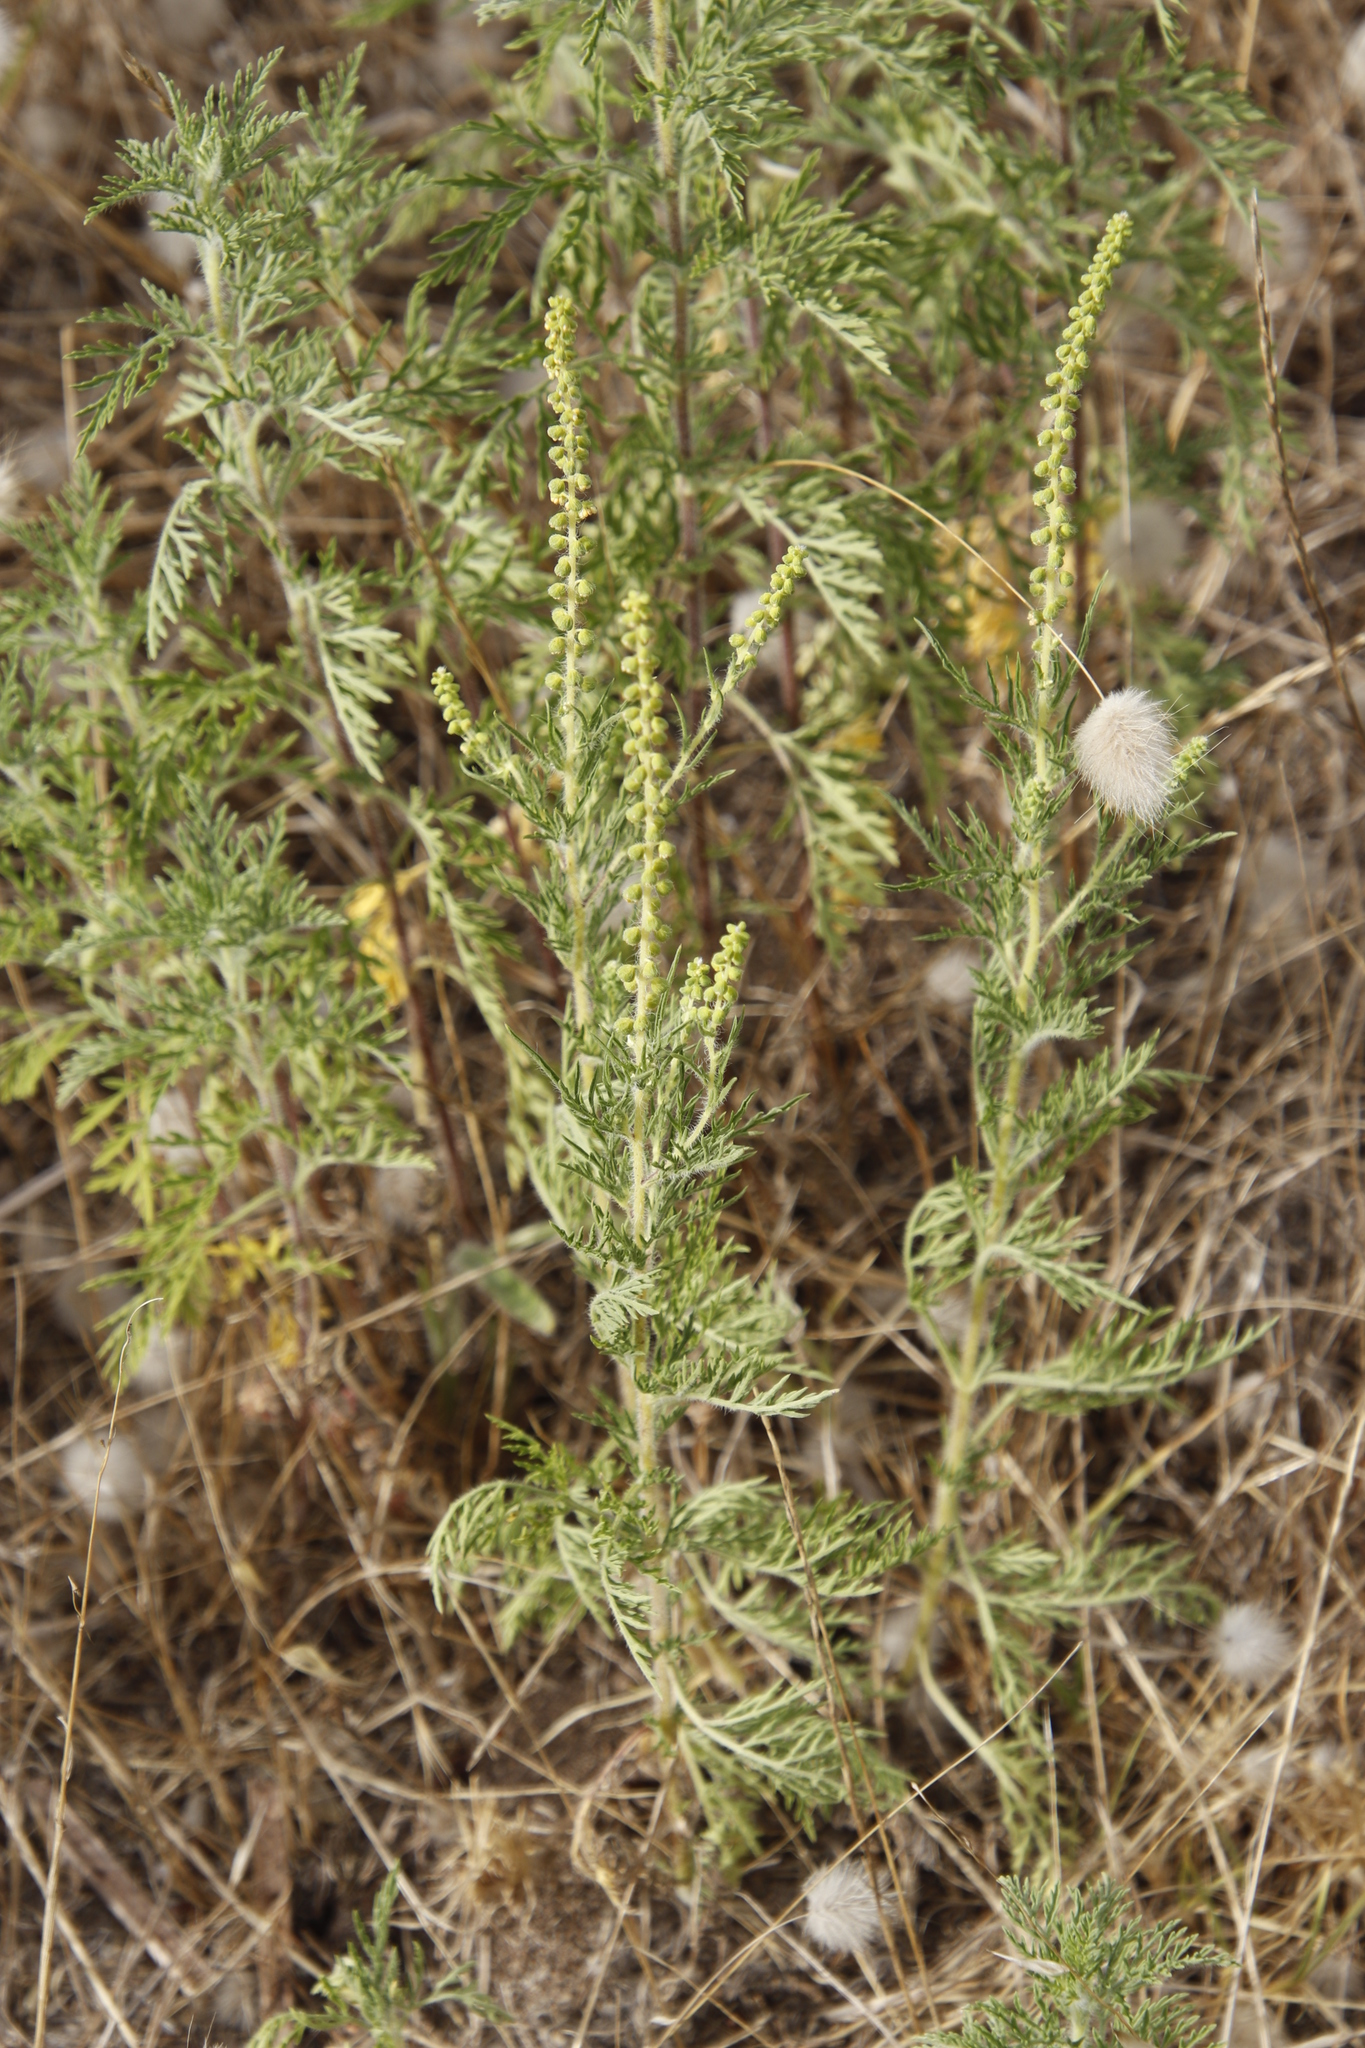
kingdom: Plantae
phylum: Tracheophyta
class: Magnoliopsida
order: Asterales
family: Asteraceae
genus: Ambrosia
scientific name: Ambrosia tenuifolia
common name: Lacy ambrosia
